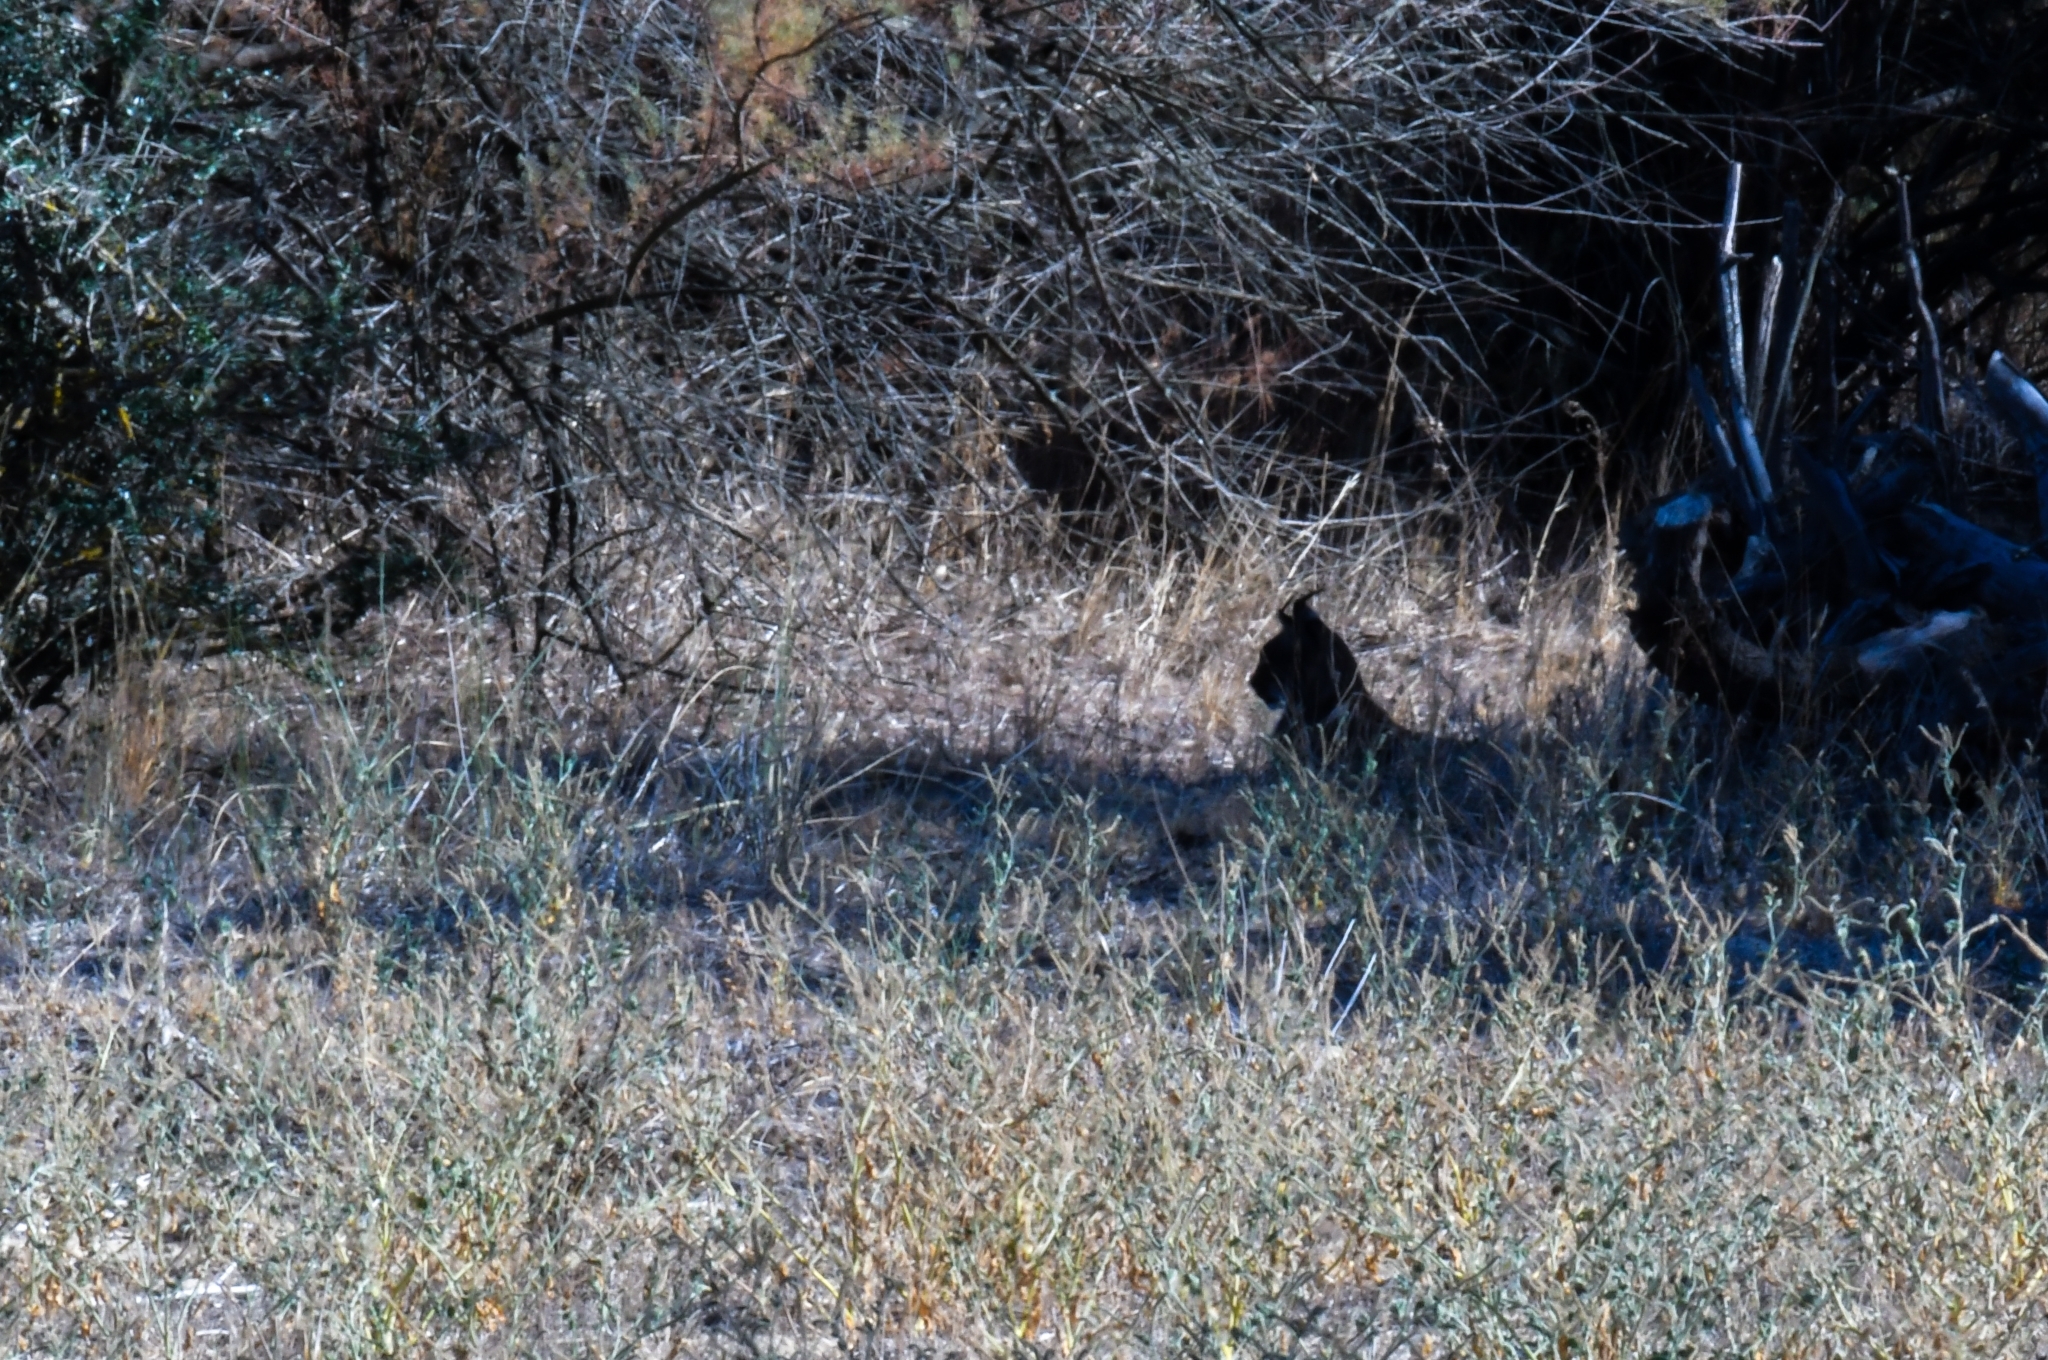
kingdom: Animalia
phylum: Chordata
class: Mammalia
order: Carnivora
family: Felidae
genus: Lynx
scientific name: Lynx pardinus
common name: Spanish lynx
